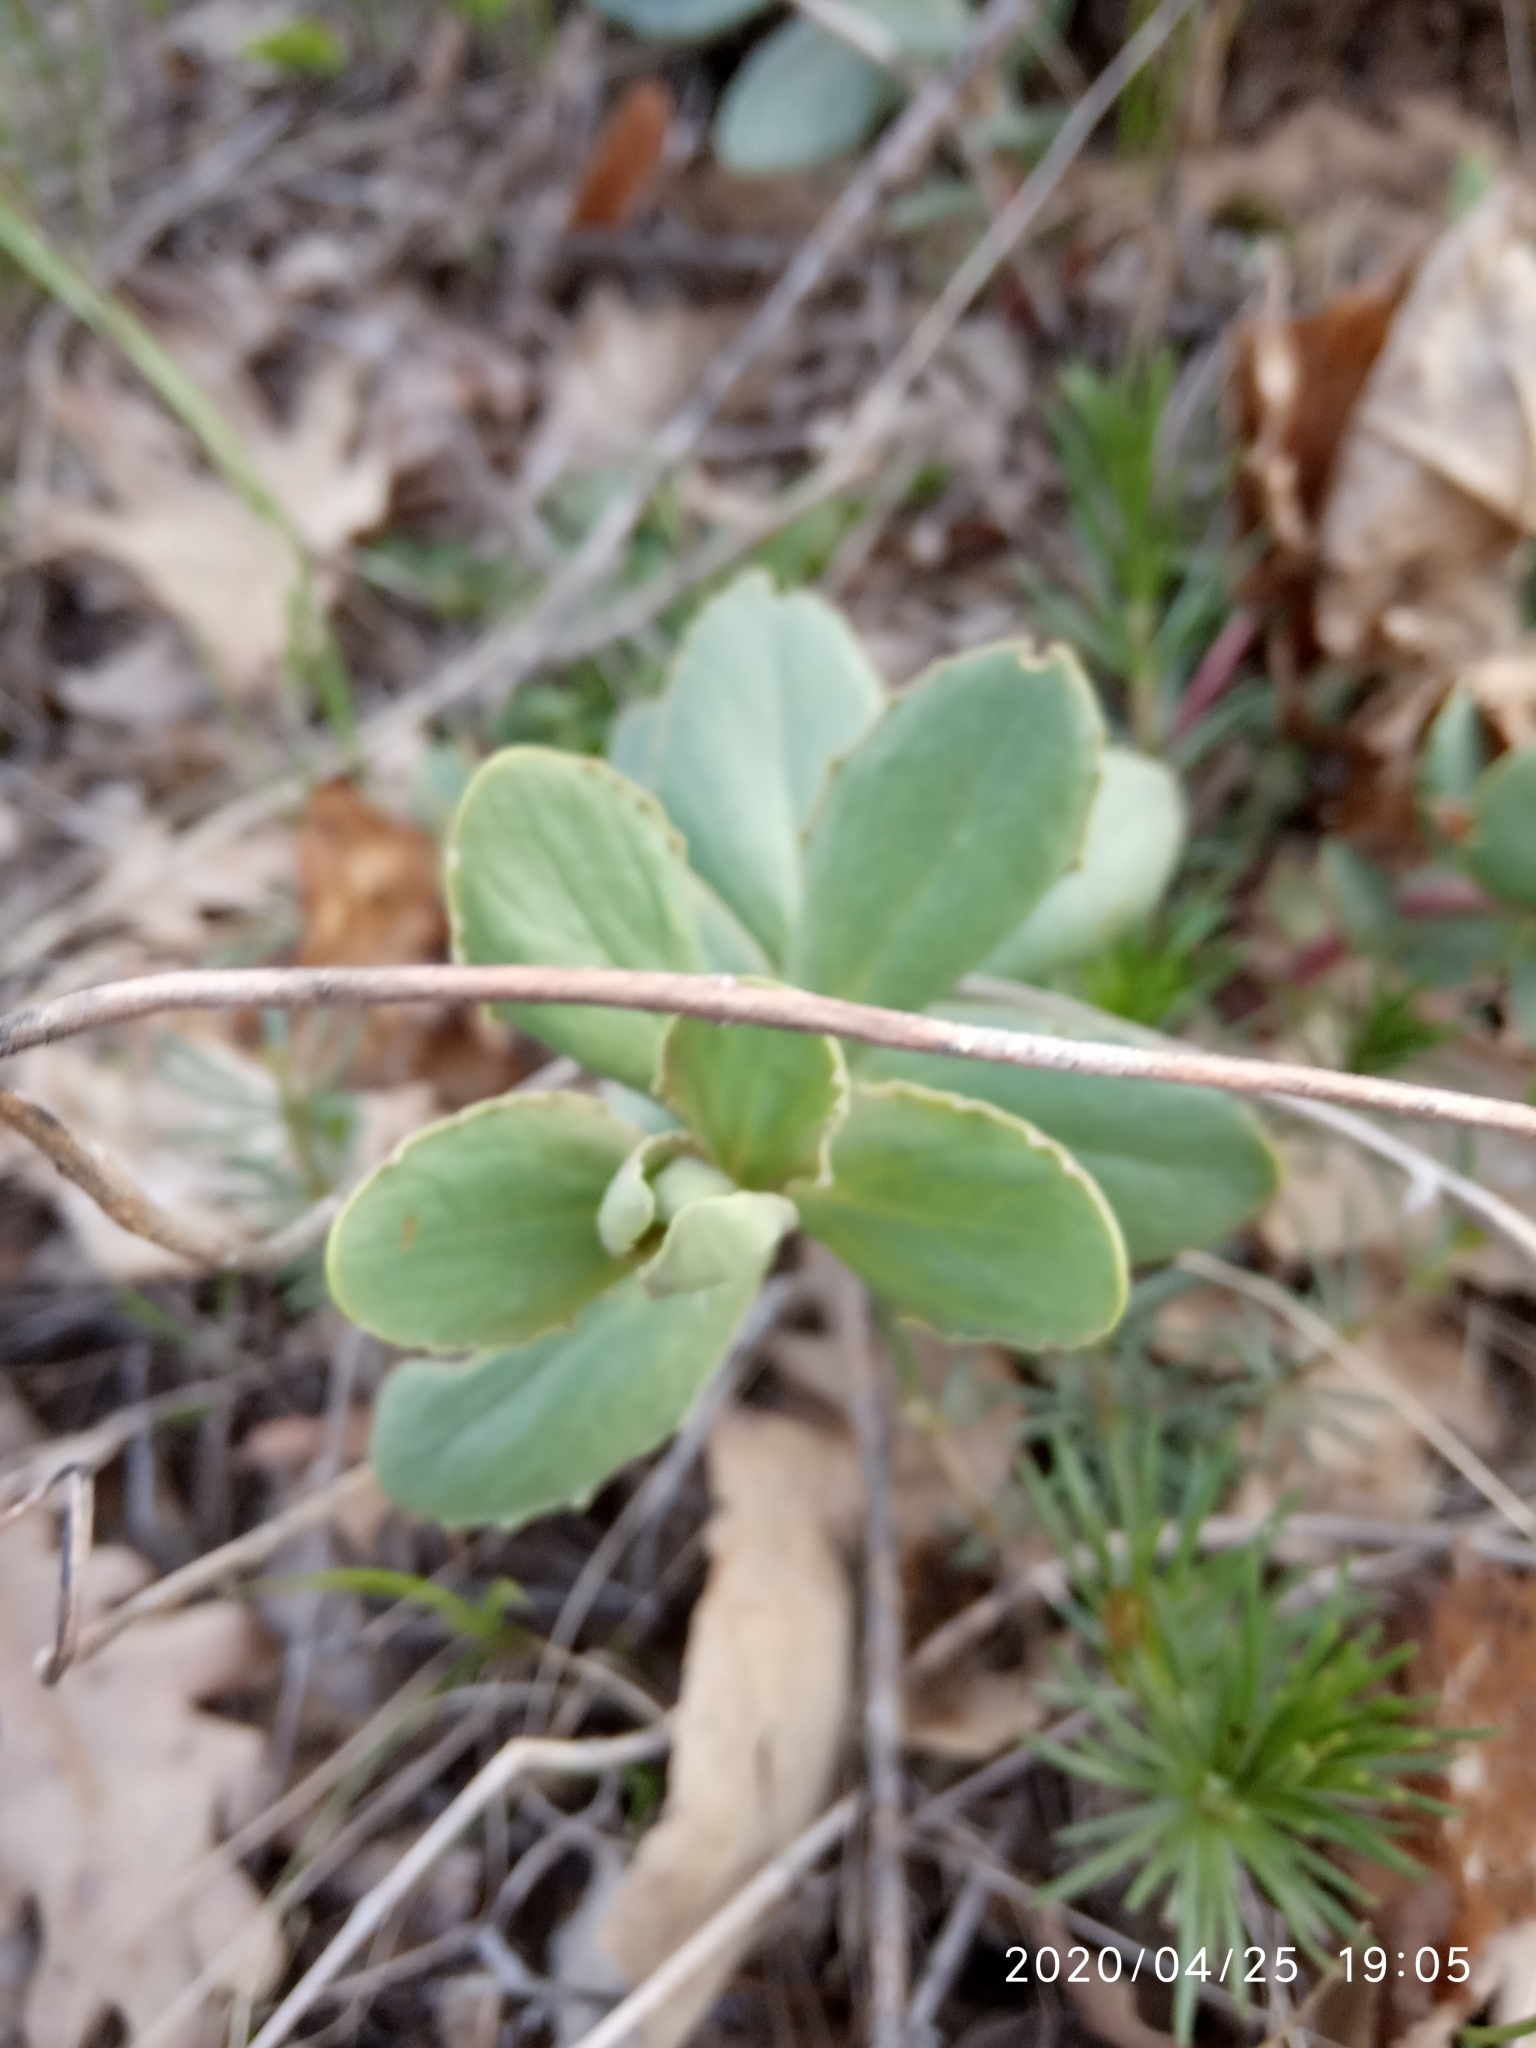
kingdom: Plantae
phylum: Tracheophyta
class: Magnoliopsida
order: Saxifragales
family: Crassulaceae
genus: Hylotelephium
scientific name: Hylotelephium telephium
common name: Live-forever
